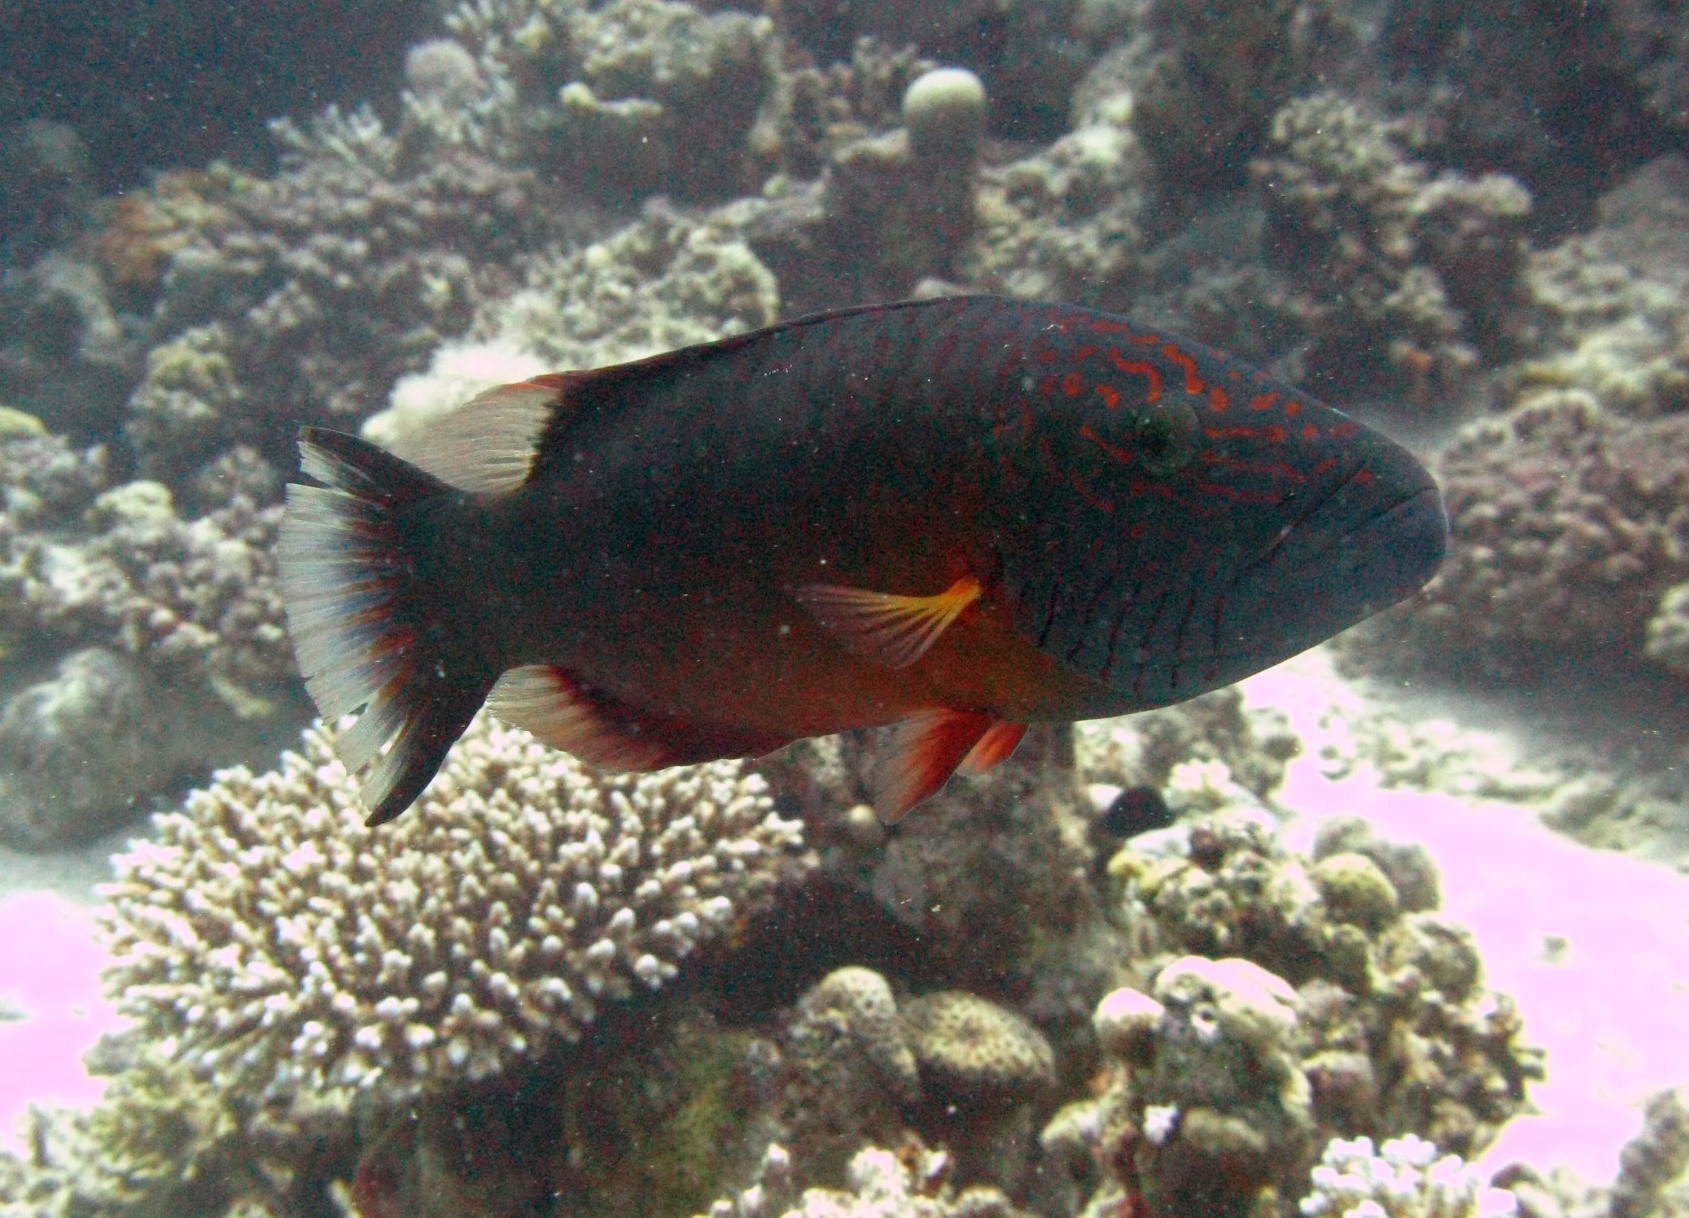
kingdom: Animalia
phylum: Chordata
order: Perciformes
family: Labridae
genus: Oxycheilinus
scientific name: Oxycheilinus digramma
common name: Bandcheek wrasse
